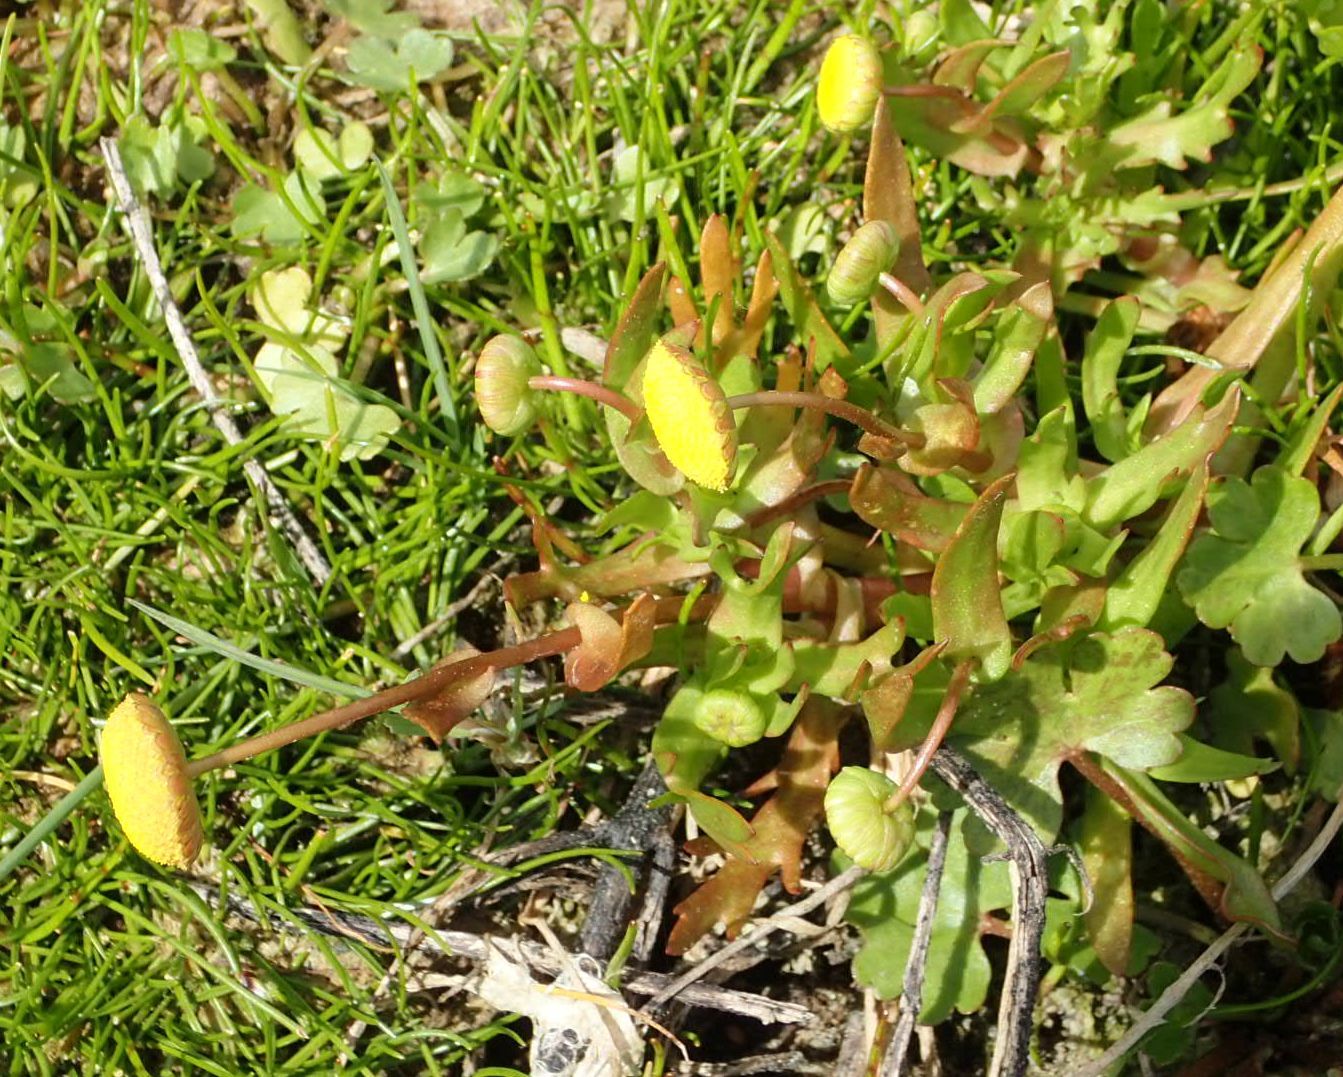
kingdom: Plantae
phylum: Tracheophyta
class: Magnoliopsida
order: Asterales
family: Asteraceae
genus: Cotula
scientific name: Cotula coronopifolia
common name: Buttonweed
